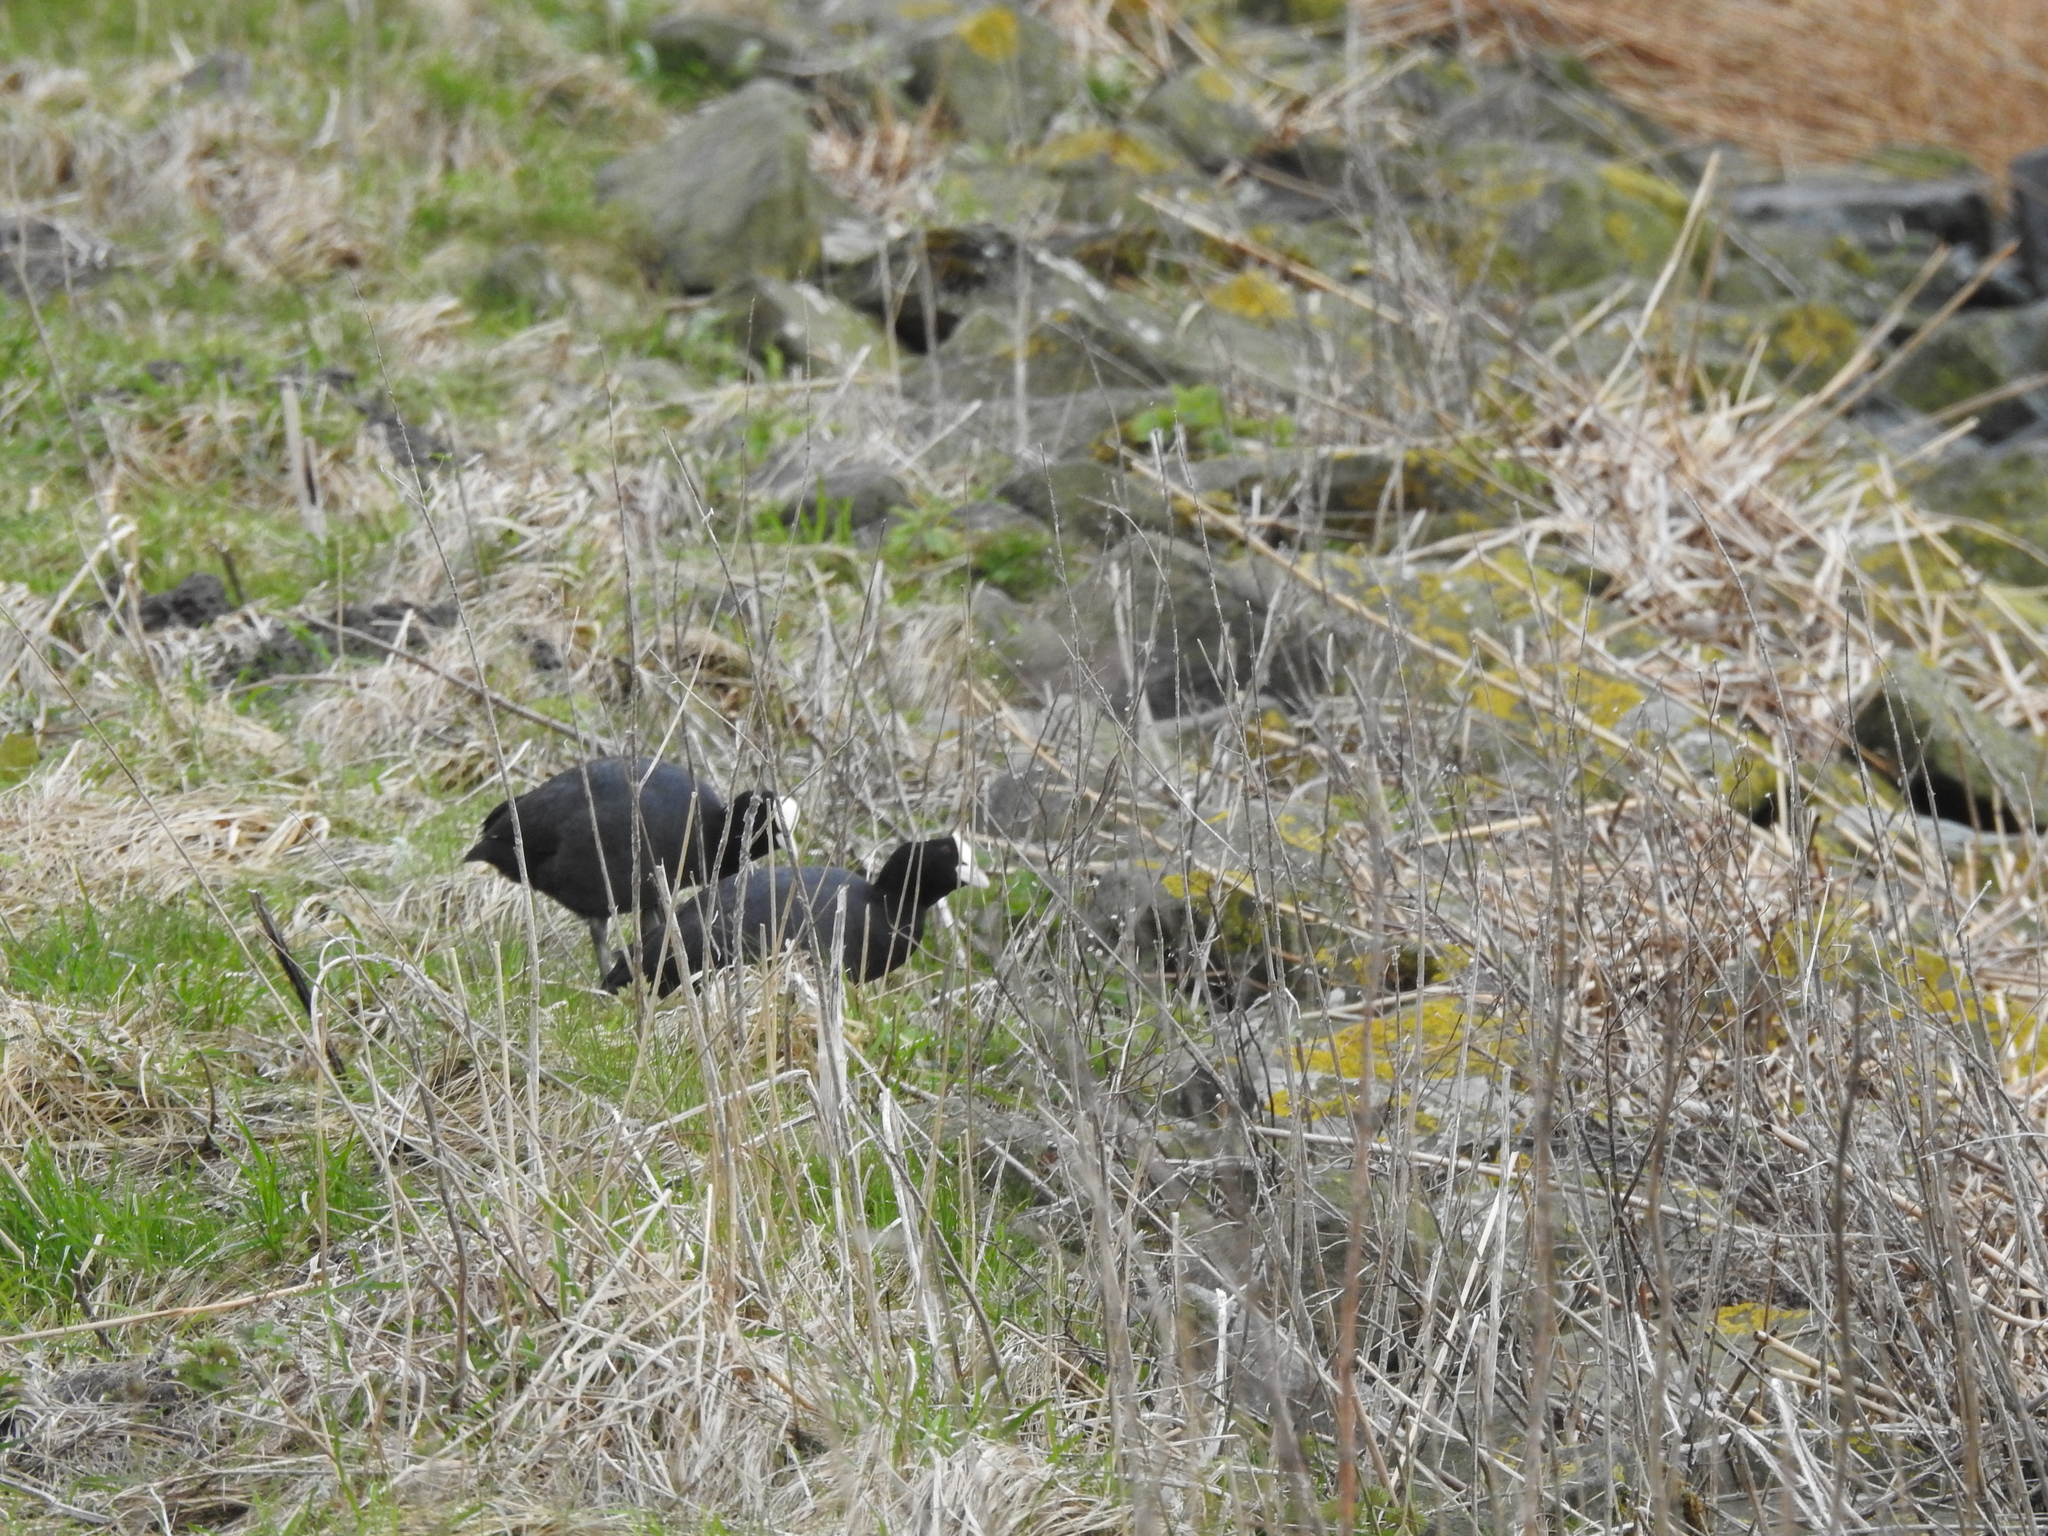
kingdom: Animalia
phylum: Chordata
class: Aves
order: Gruiformes
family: Rallidae
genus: Fulica
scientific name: Fulica atra
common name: Eurasian coot
